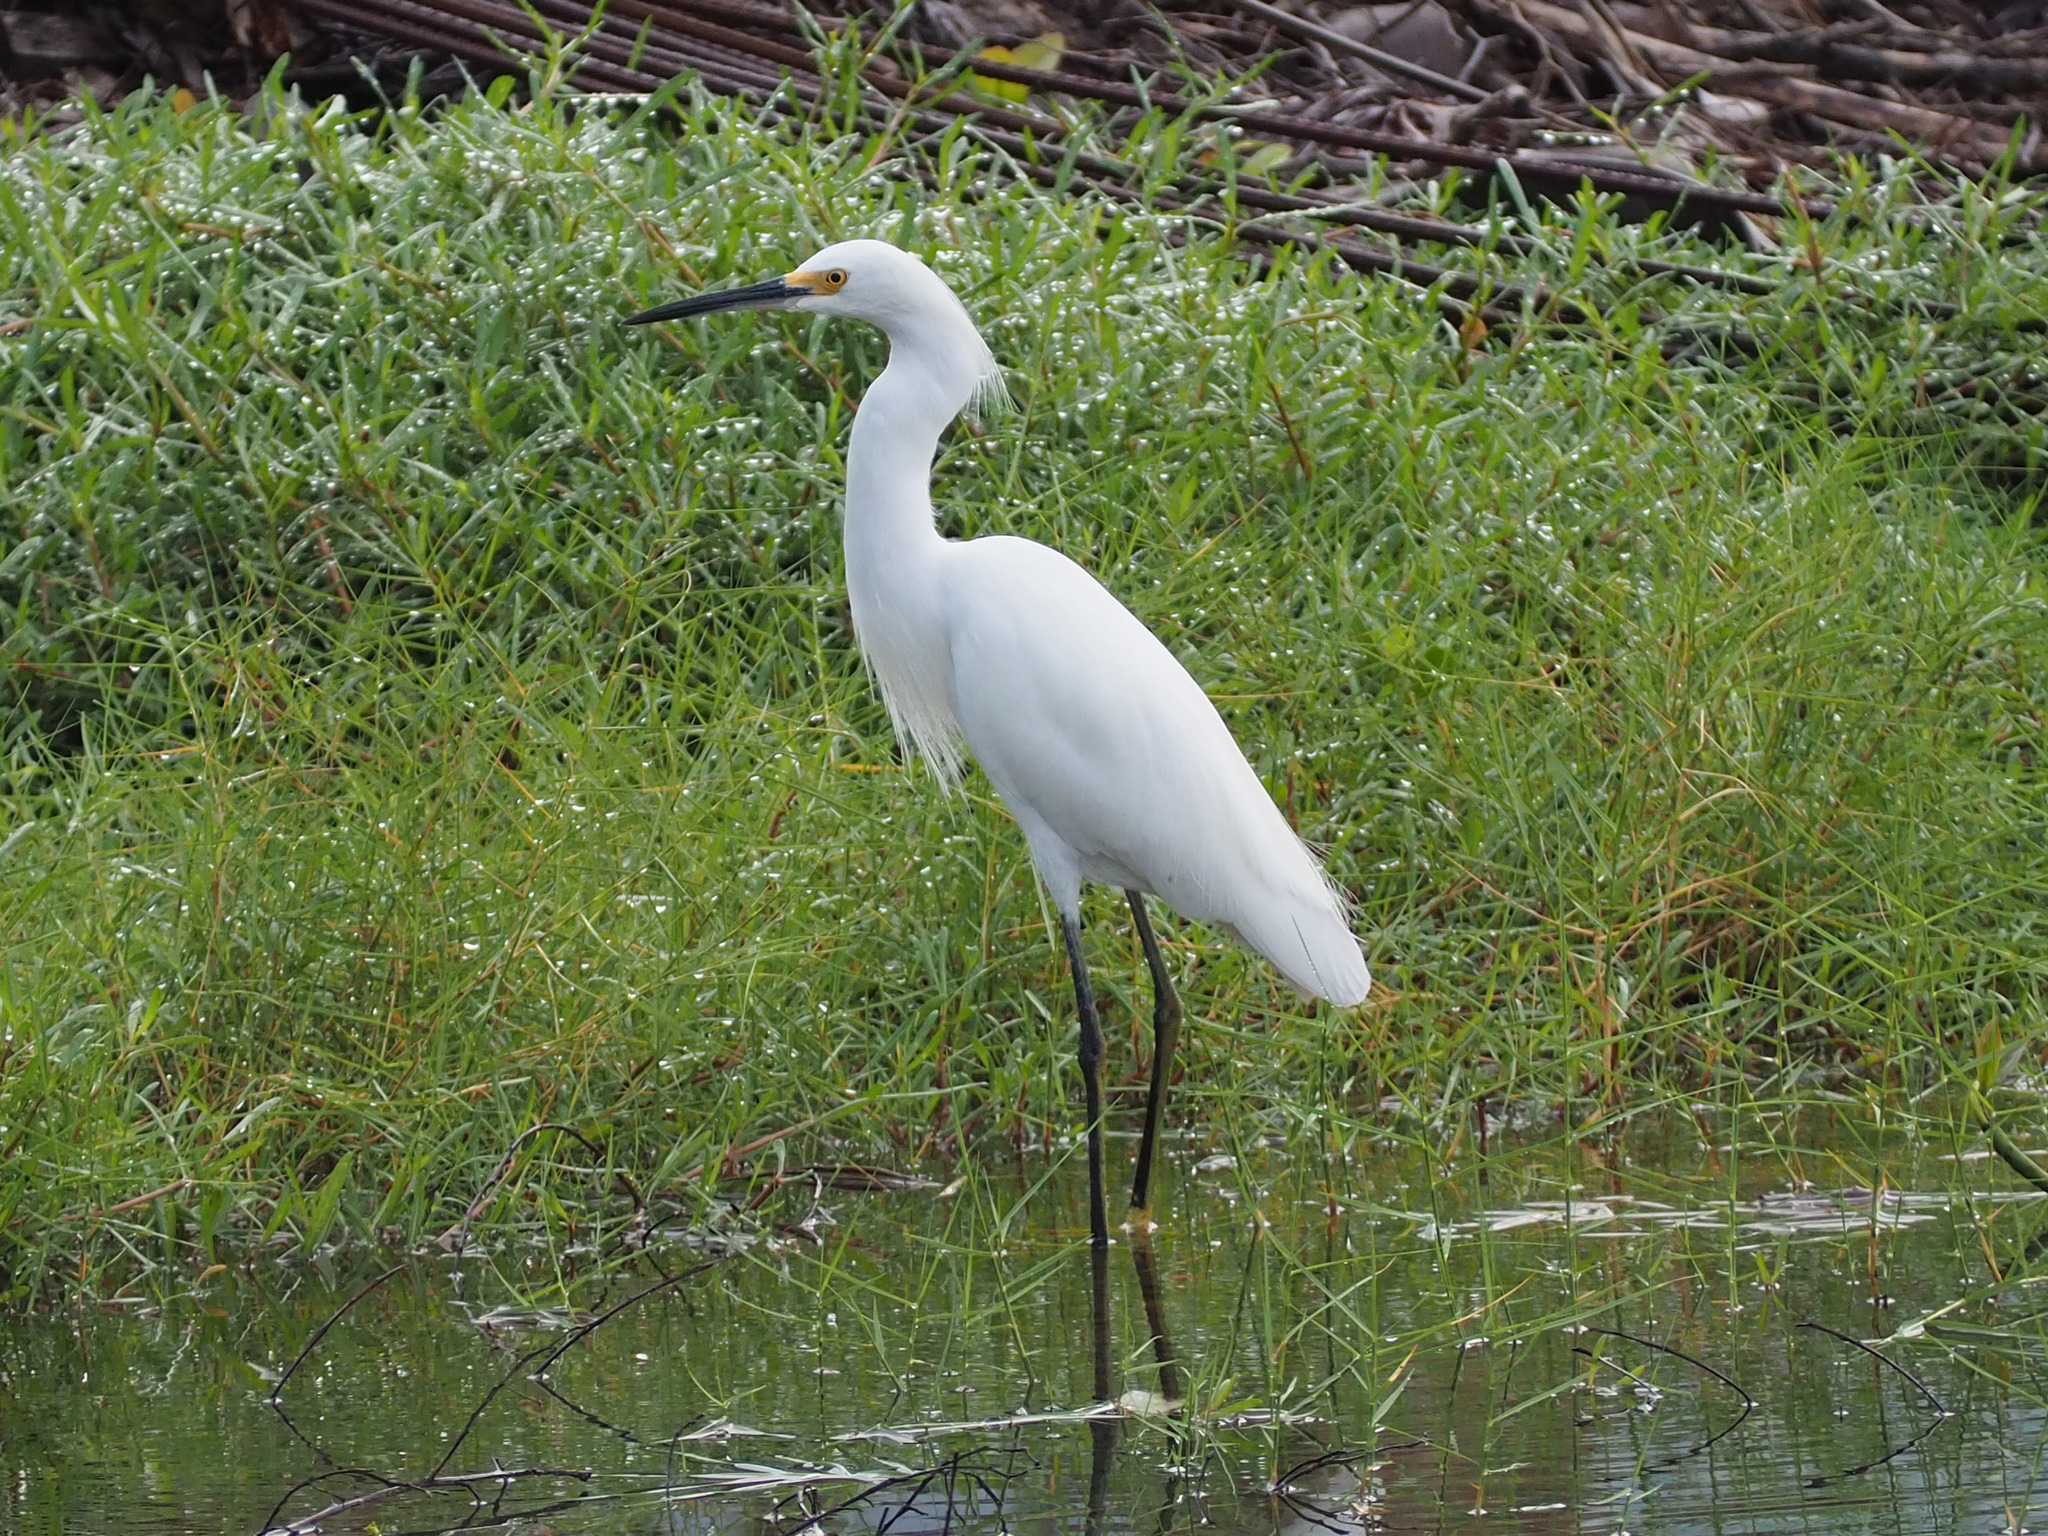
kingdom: Animalia
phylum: Chordata
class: Aves
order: Pelecaniformes
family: Ardeidae
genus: Egretta
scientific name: Egretta thula
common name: Snowy egret
